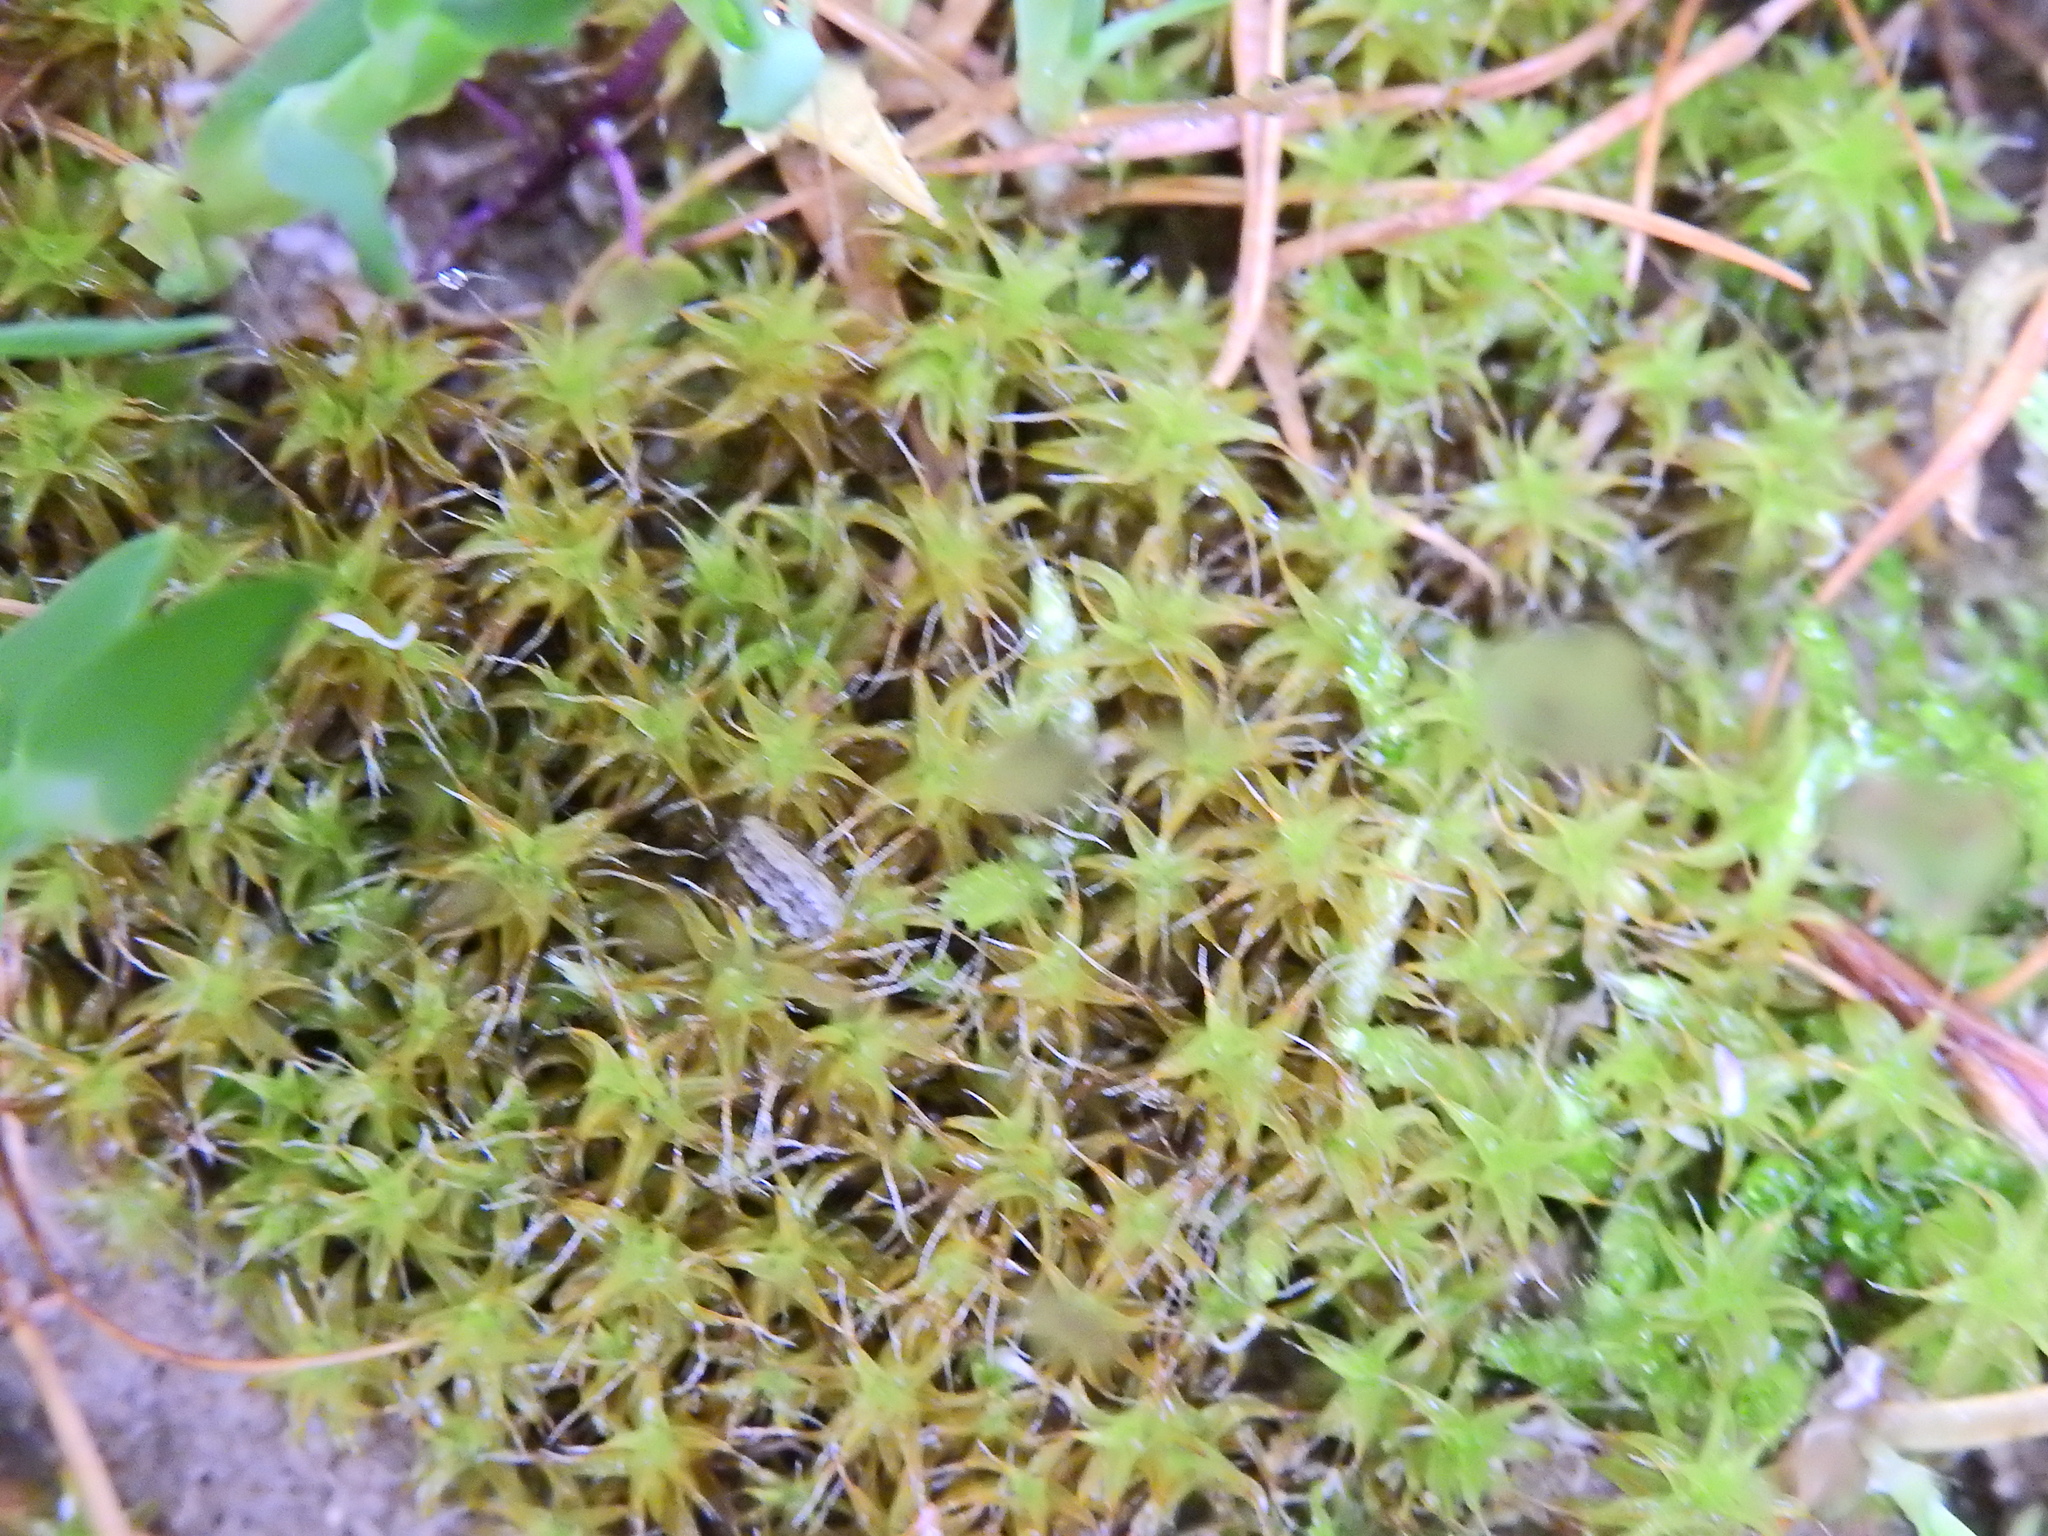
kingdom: Plantae
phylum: Bryophyta
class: Bryopsida
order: Pottiales
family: Pottiaceae
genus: Syntrichia
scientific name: Syntrichia ruralis
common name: Sidewalk screw moss
